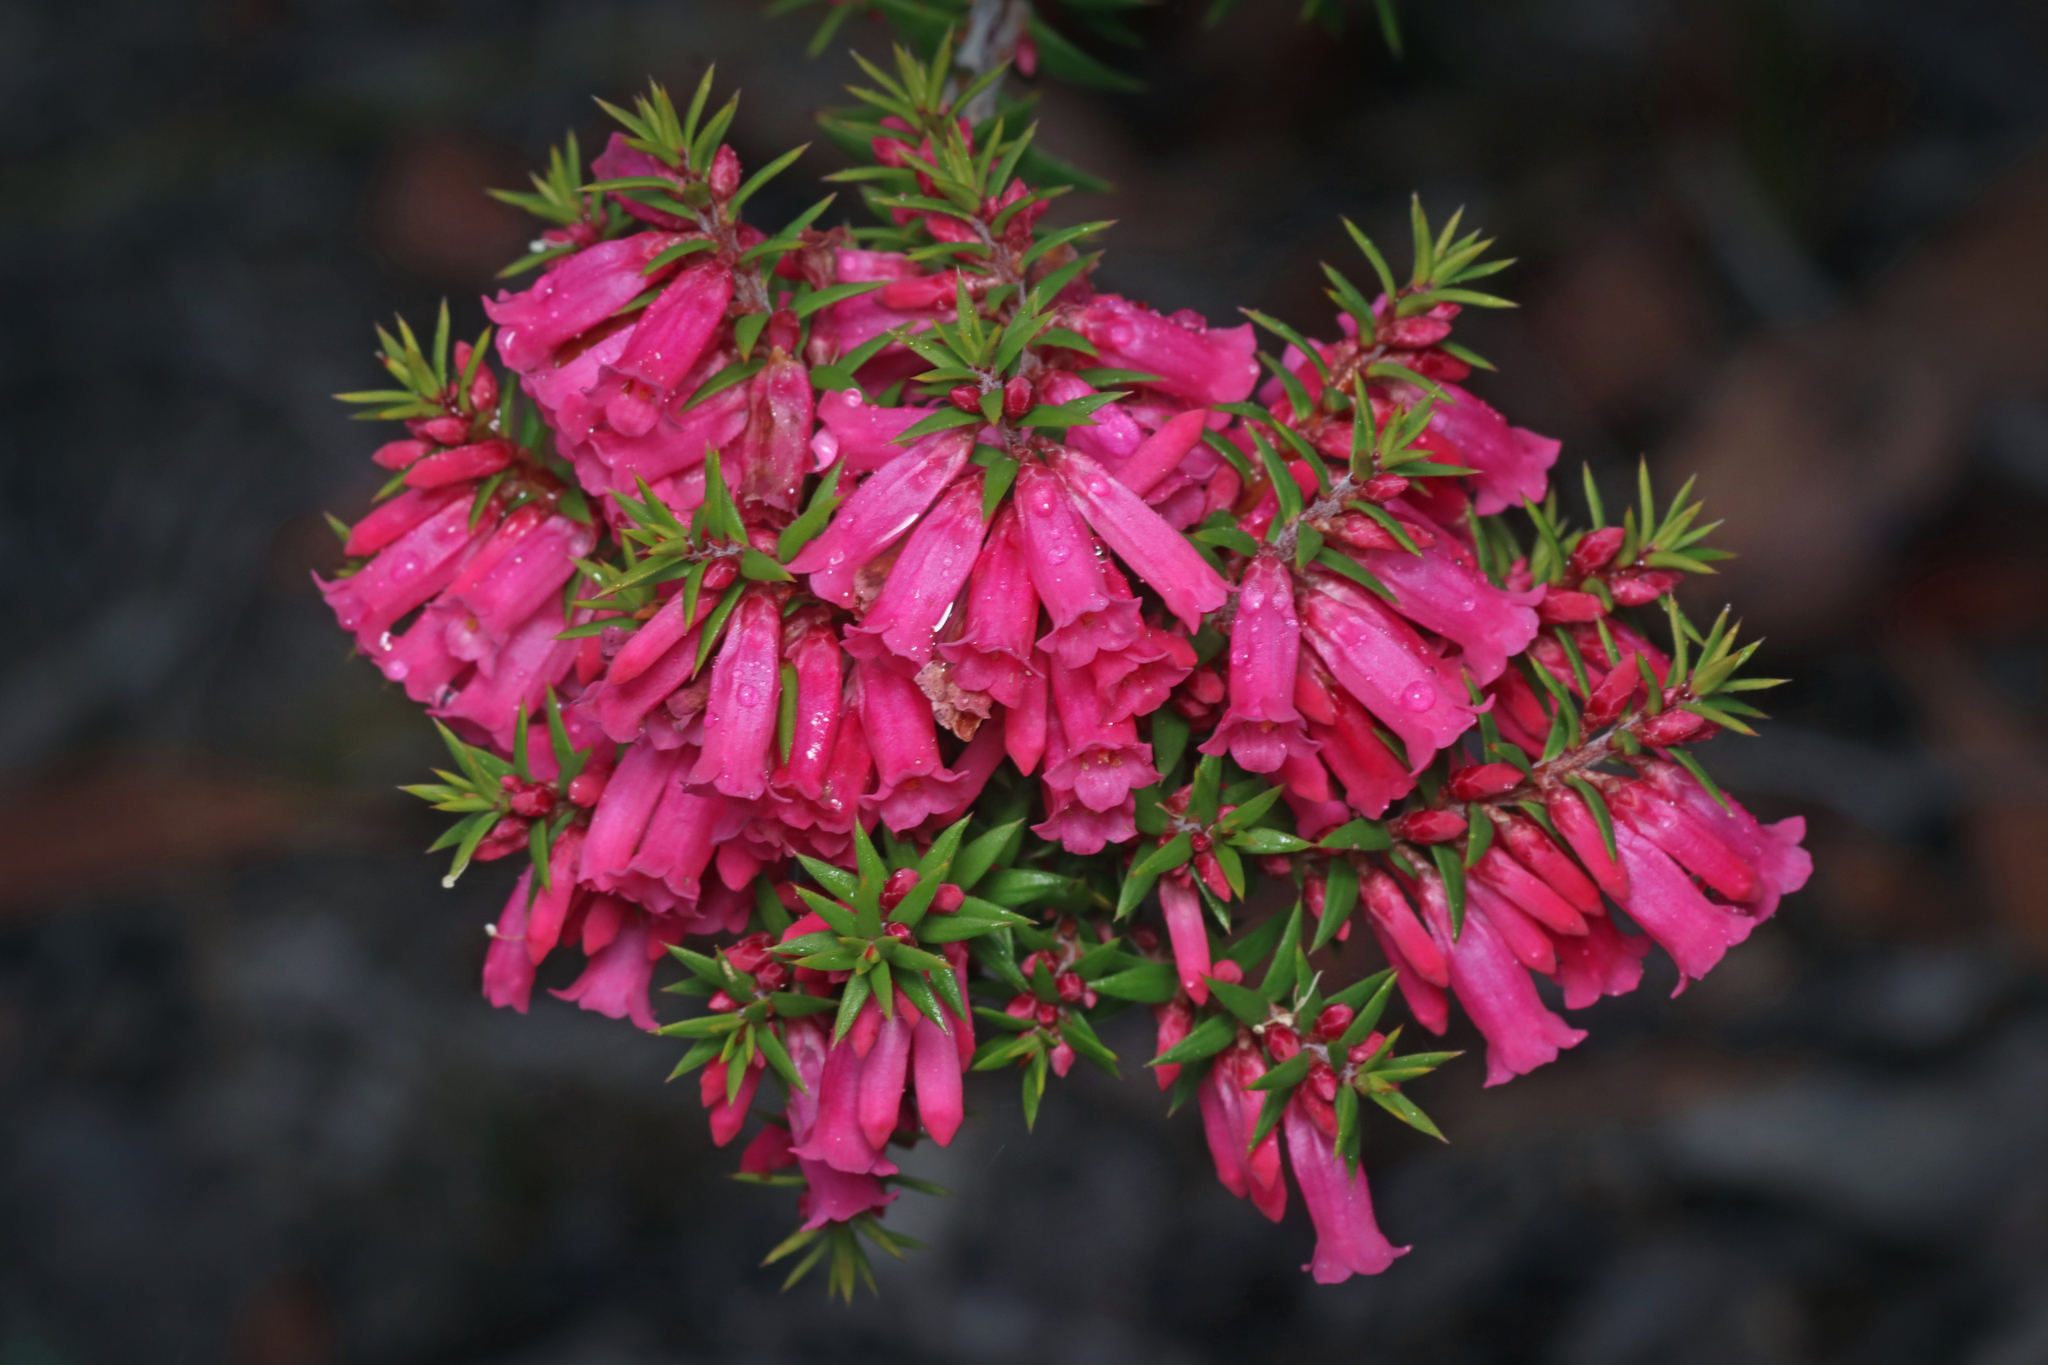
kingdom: Plantae
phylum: Tracheophyta
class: Magnoliopsida
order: Ericales
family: Ericaceae
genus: Epacris
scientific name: Epacris impressa
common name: Common-heath
